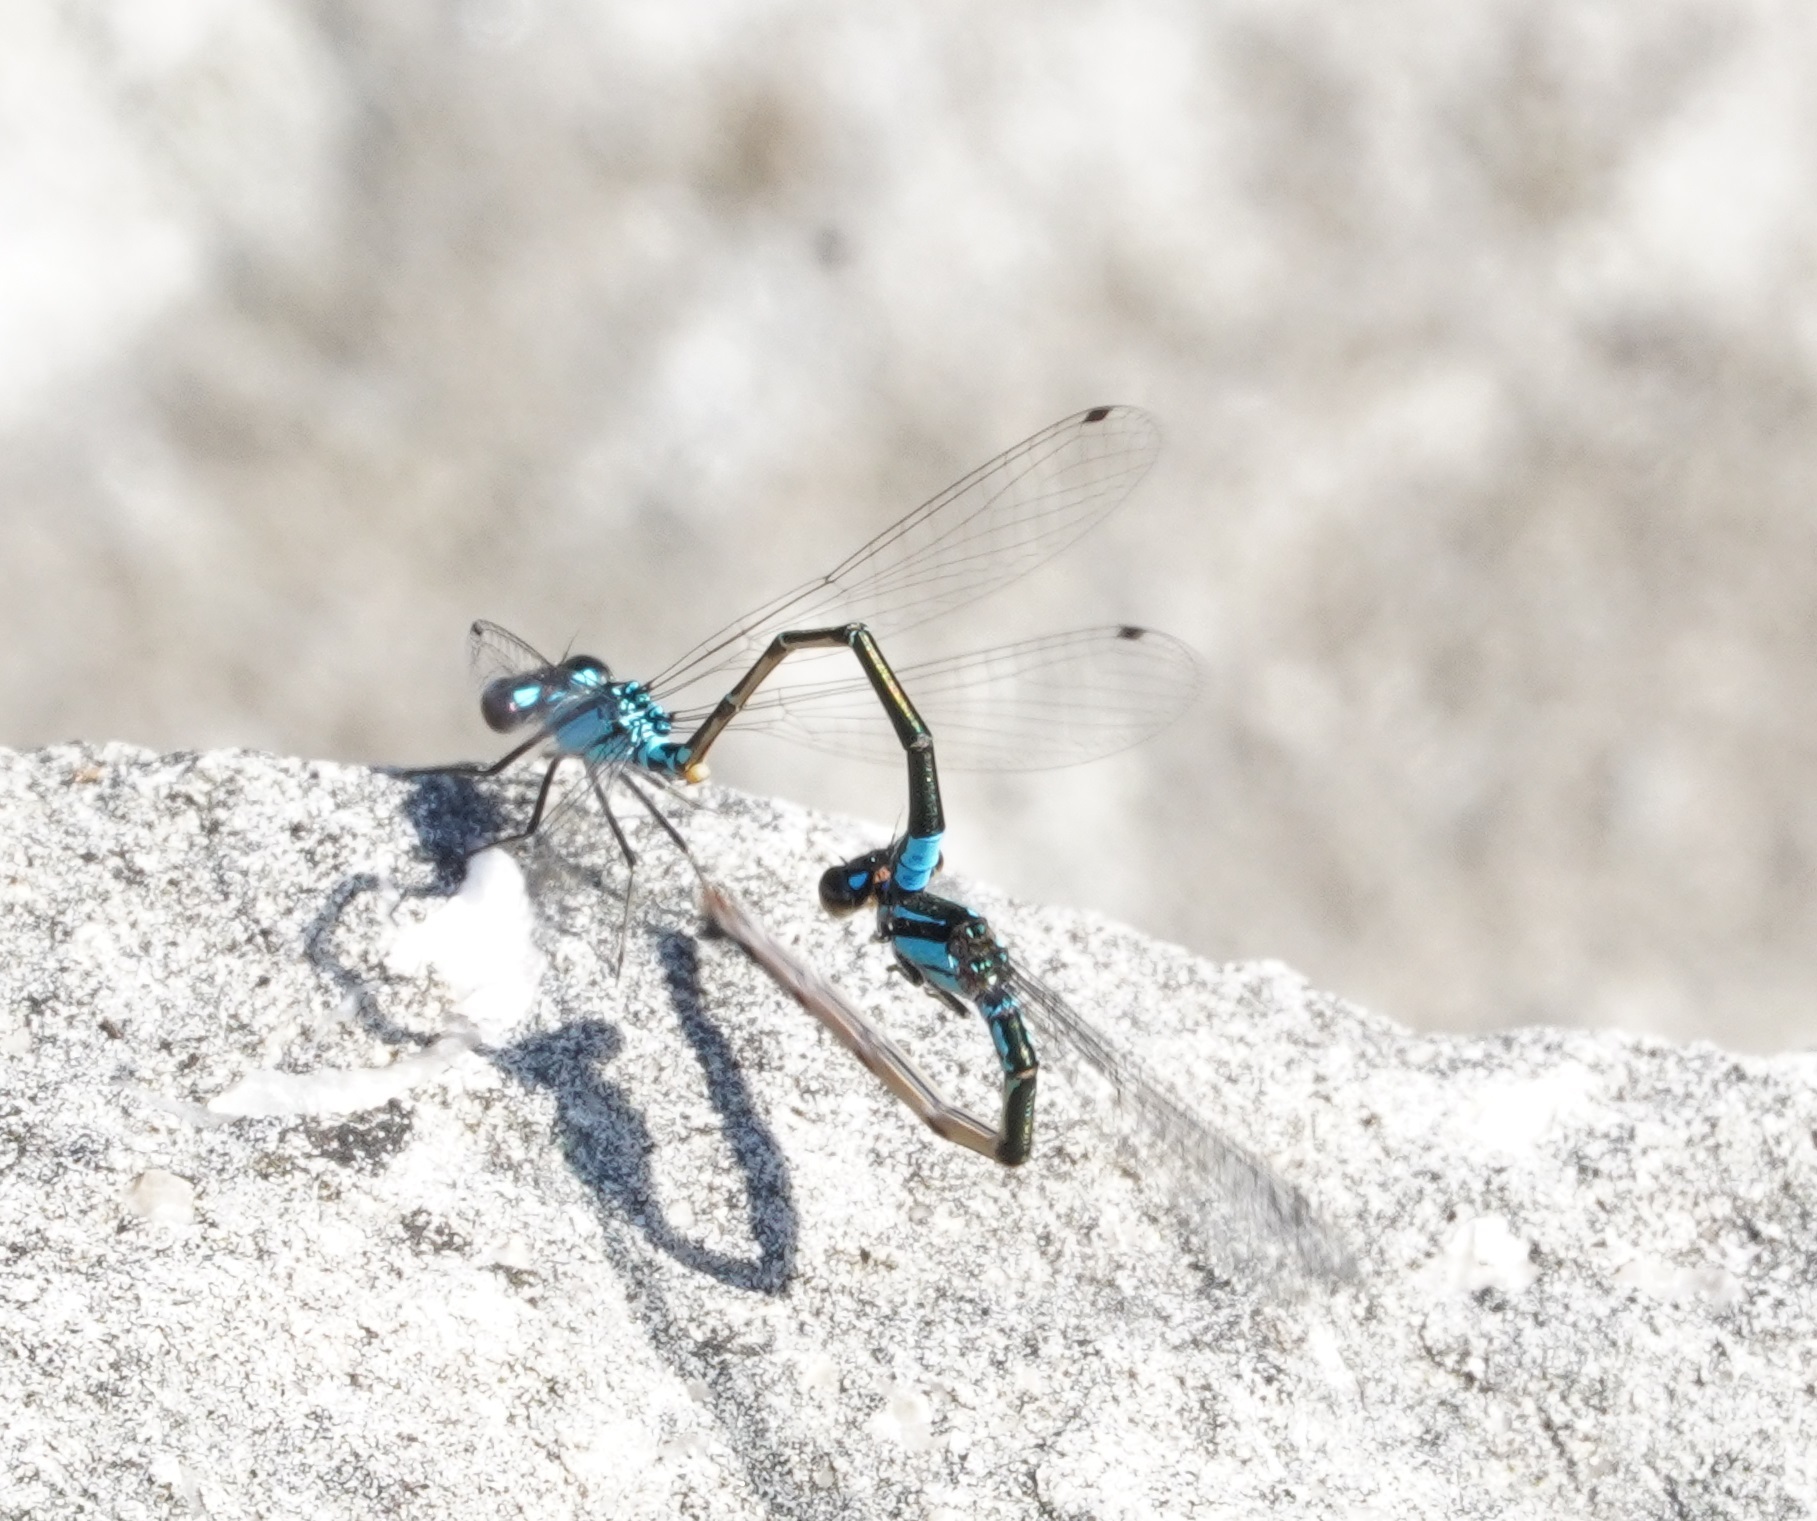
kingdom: Animalia
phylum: Arthropoda
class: Insecta
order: Odonata
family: Coenagrionidae
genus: Enallagma
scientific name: Enallagma geminatum
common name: Skimming bluet
